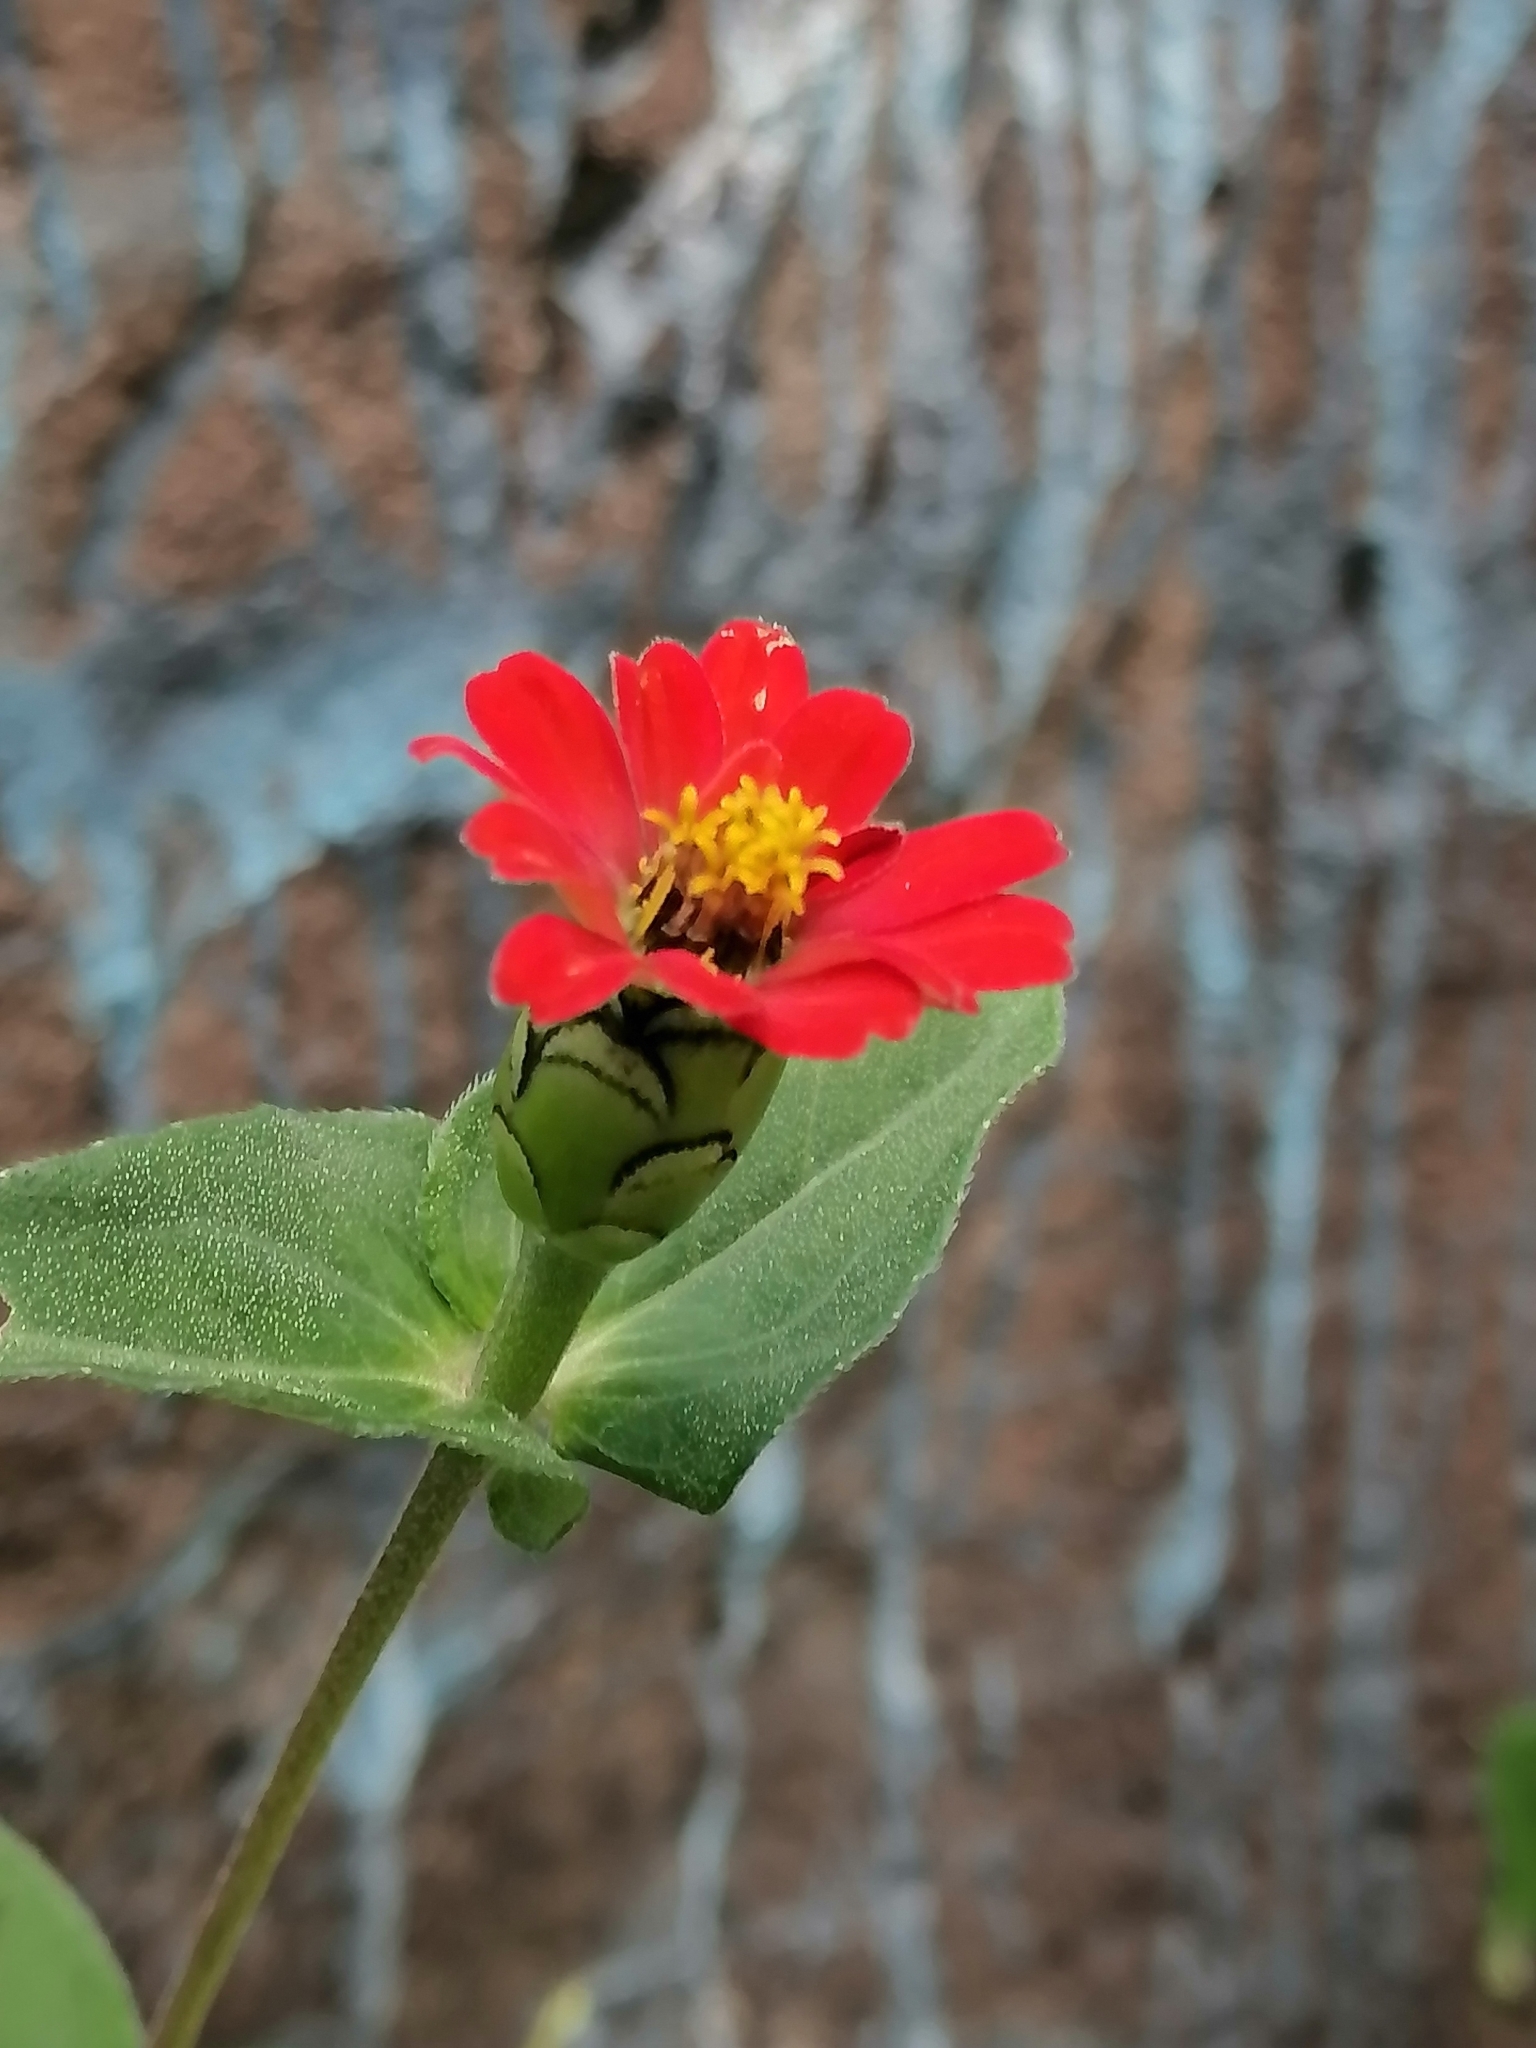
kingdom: Plantae
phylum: Tracheophyta
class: Magnoliopsida
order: Asterales
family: Asteraceae
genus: Zinnia
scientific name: Zinnia peruviana
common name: Peruvian zinnia
